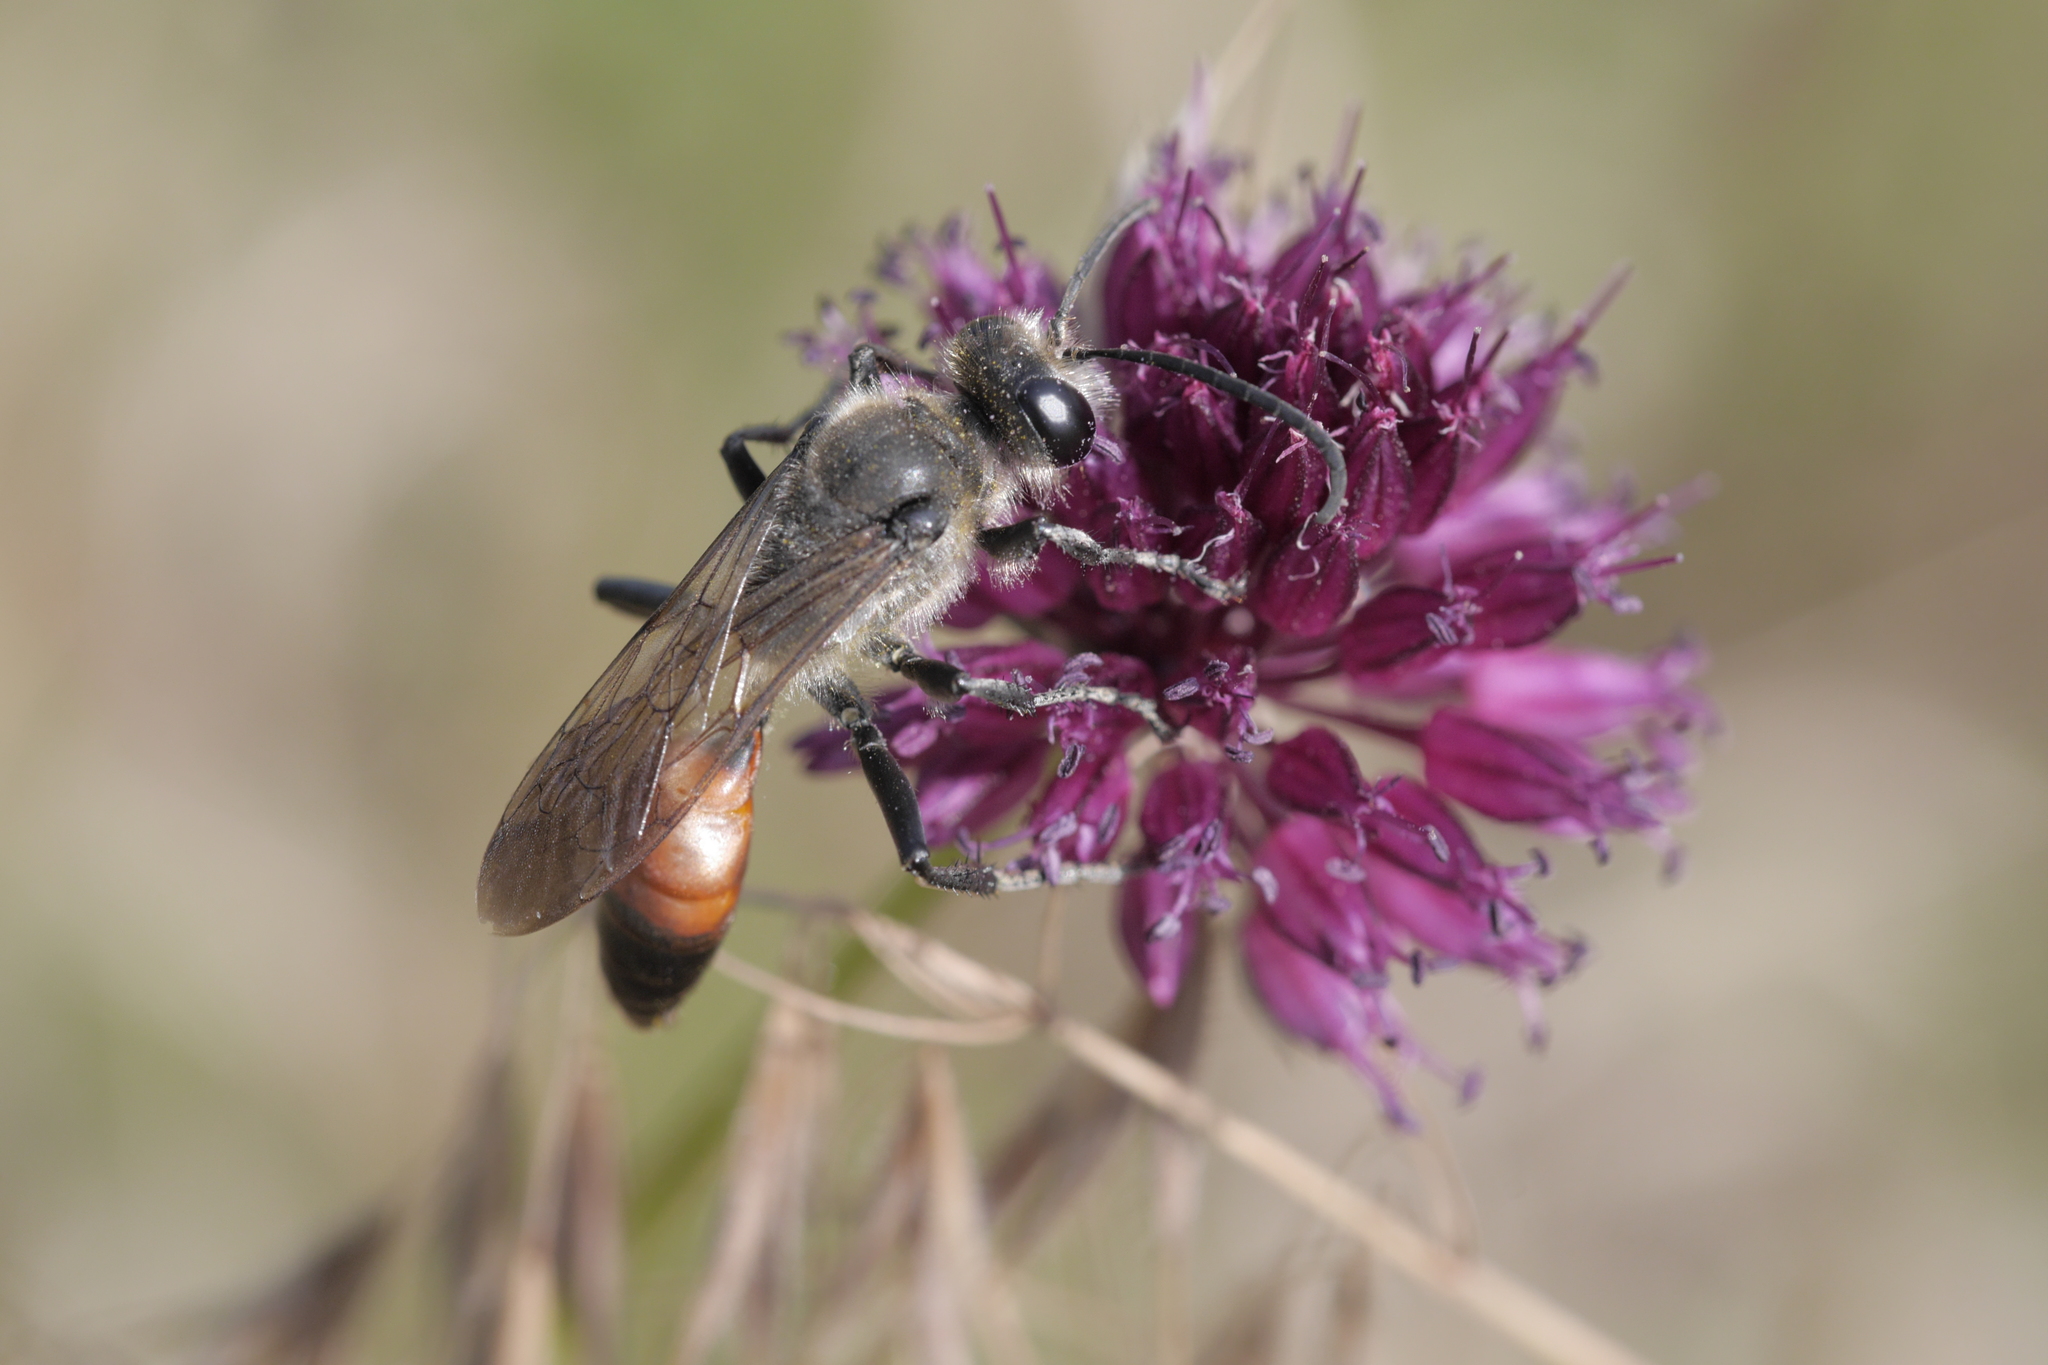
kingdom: Animalia
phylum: Arthropoda
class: Insecta
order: Hymenoptera
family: Sphecidae
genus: Sphex
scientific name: Sphex funerarius
